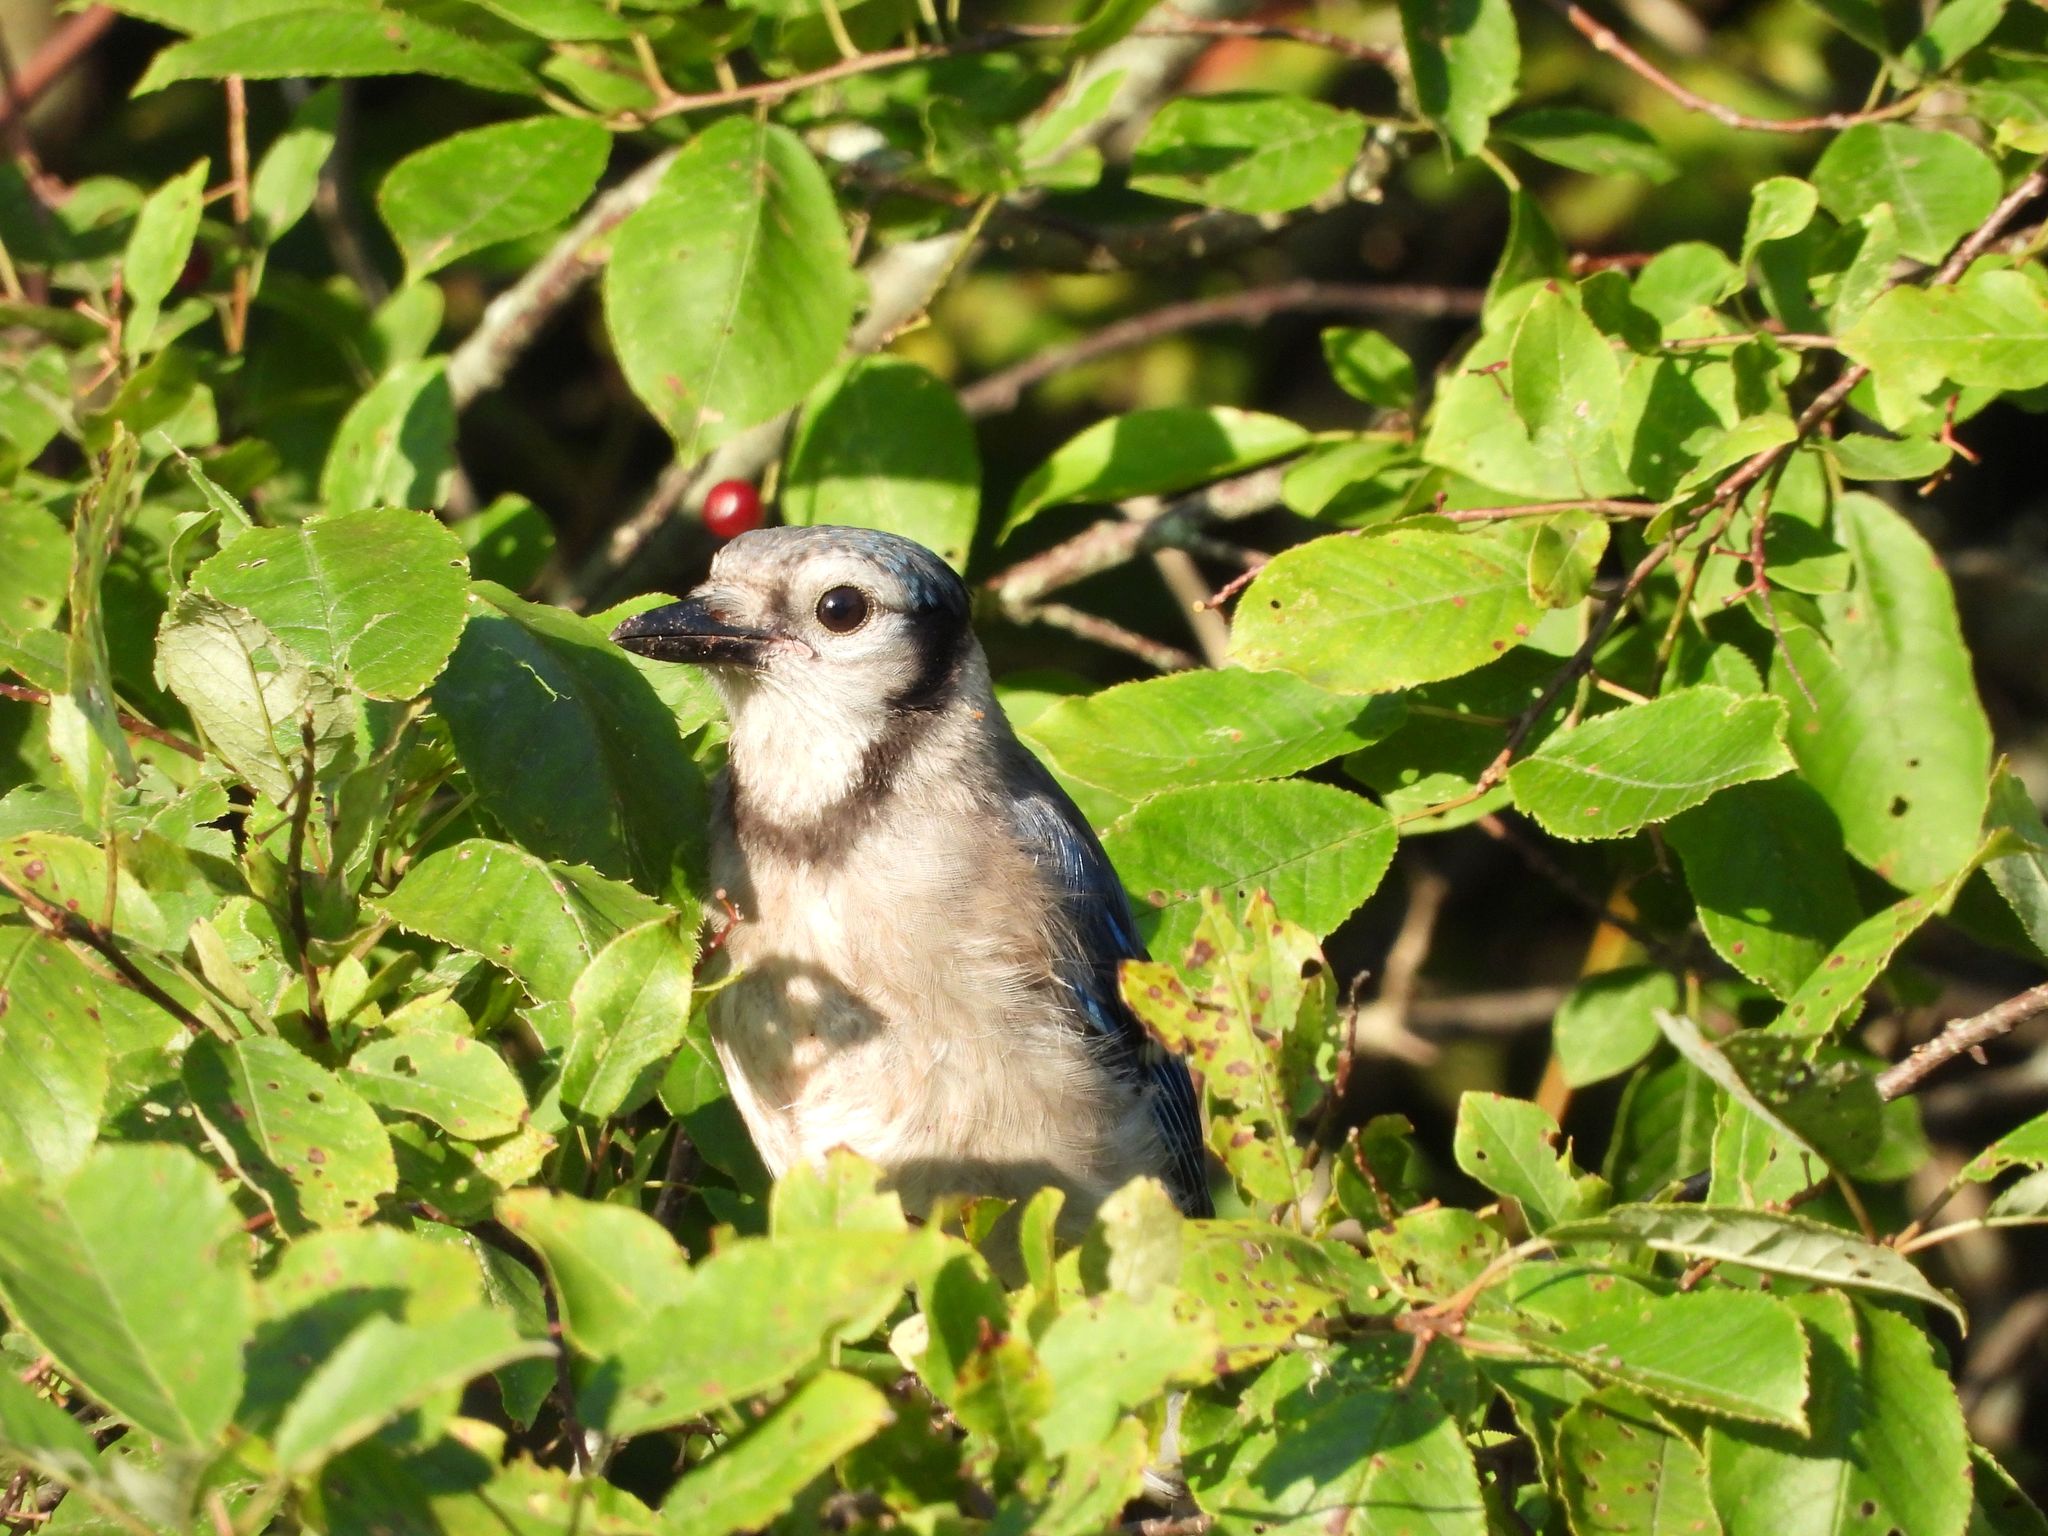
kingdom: Animalia
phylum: Chordata
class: Aves
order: Passeriformes
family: Corvidae
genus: Cyanocitta
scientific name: Cyanocitta cristata
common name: Blue jay
